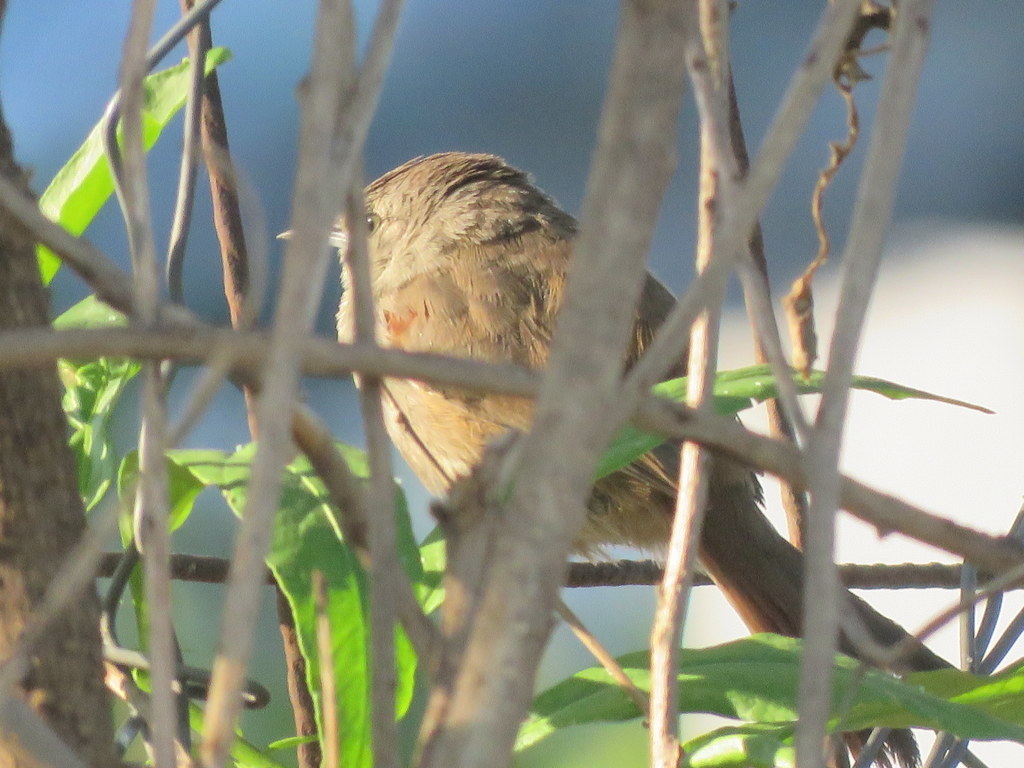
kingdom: Animalia
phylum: Chordata
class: Aves
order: Passeriformes
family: Furnariidae
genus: Phacellodomus
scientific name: Phacellodomus sibilatrix
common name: Little thornbird
